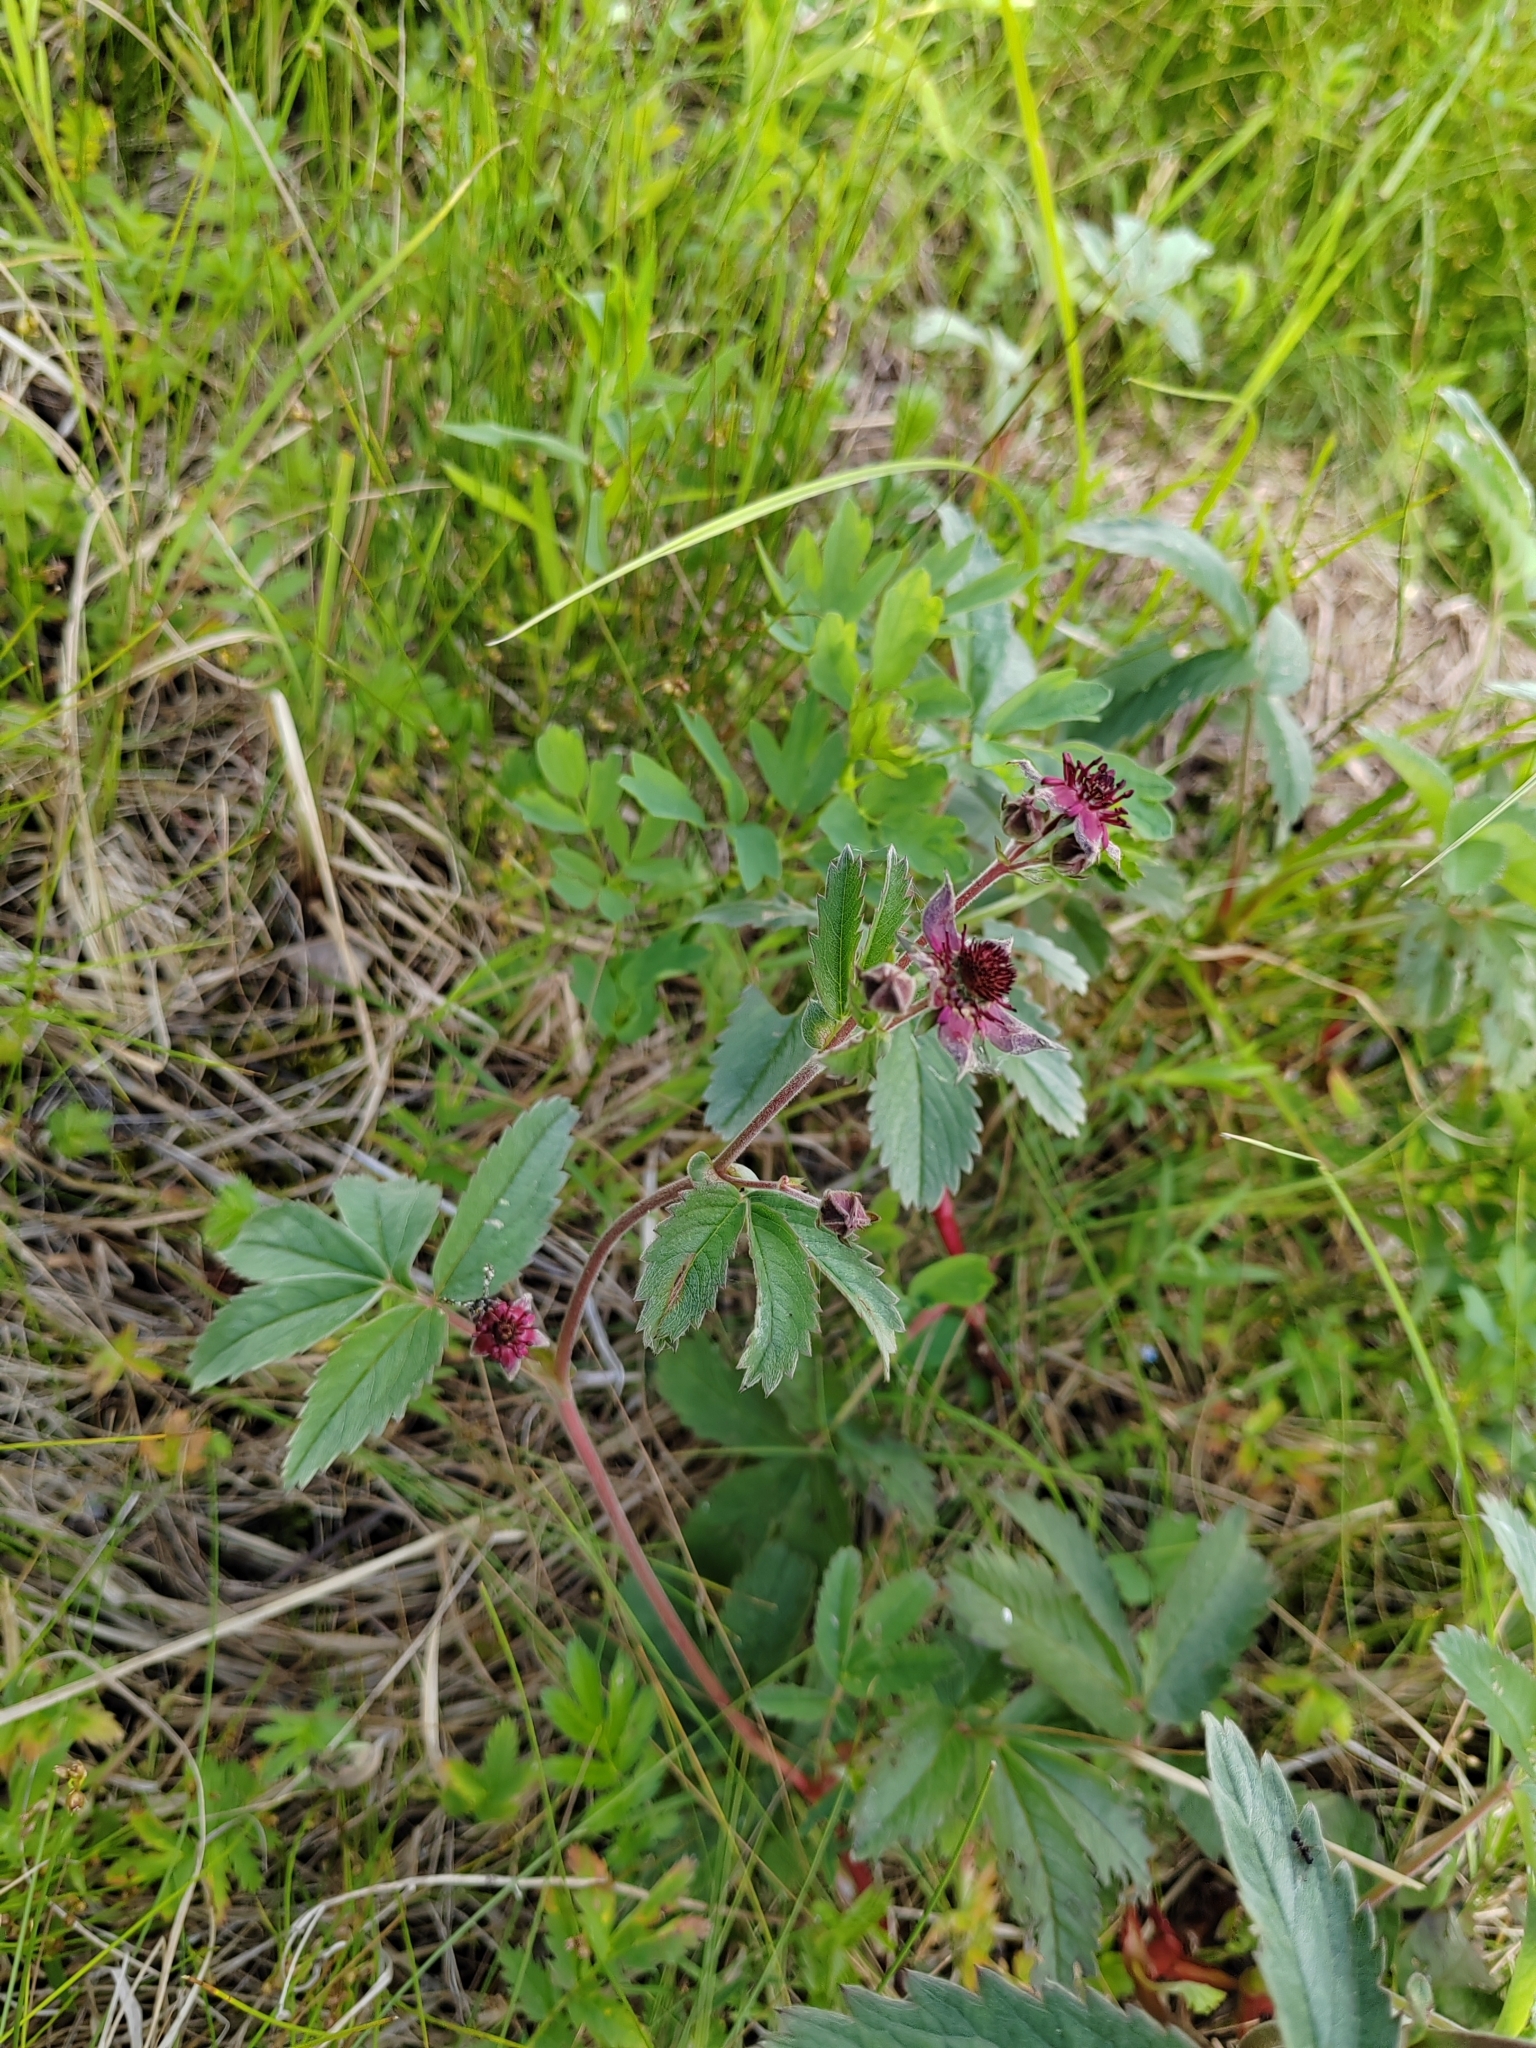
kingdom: Plantae
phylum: Tracheophyta
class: Magnoliopsida
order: Rosales
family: Rosaceae
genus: Comarum
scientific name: Comarum palustre
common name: Marsh cinquefoil
